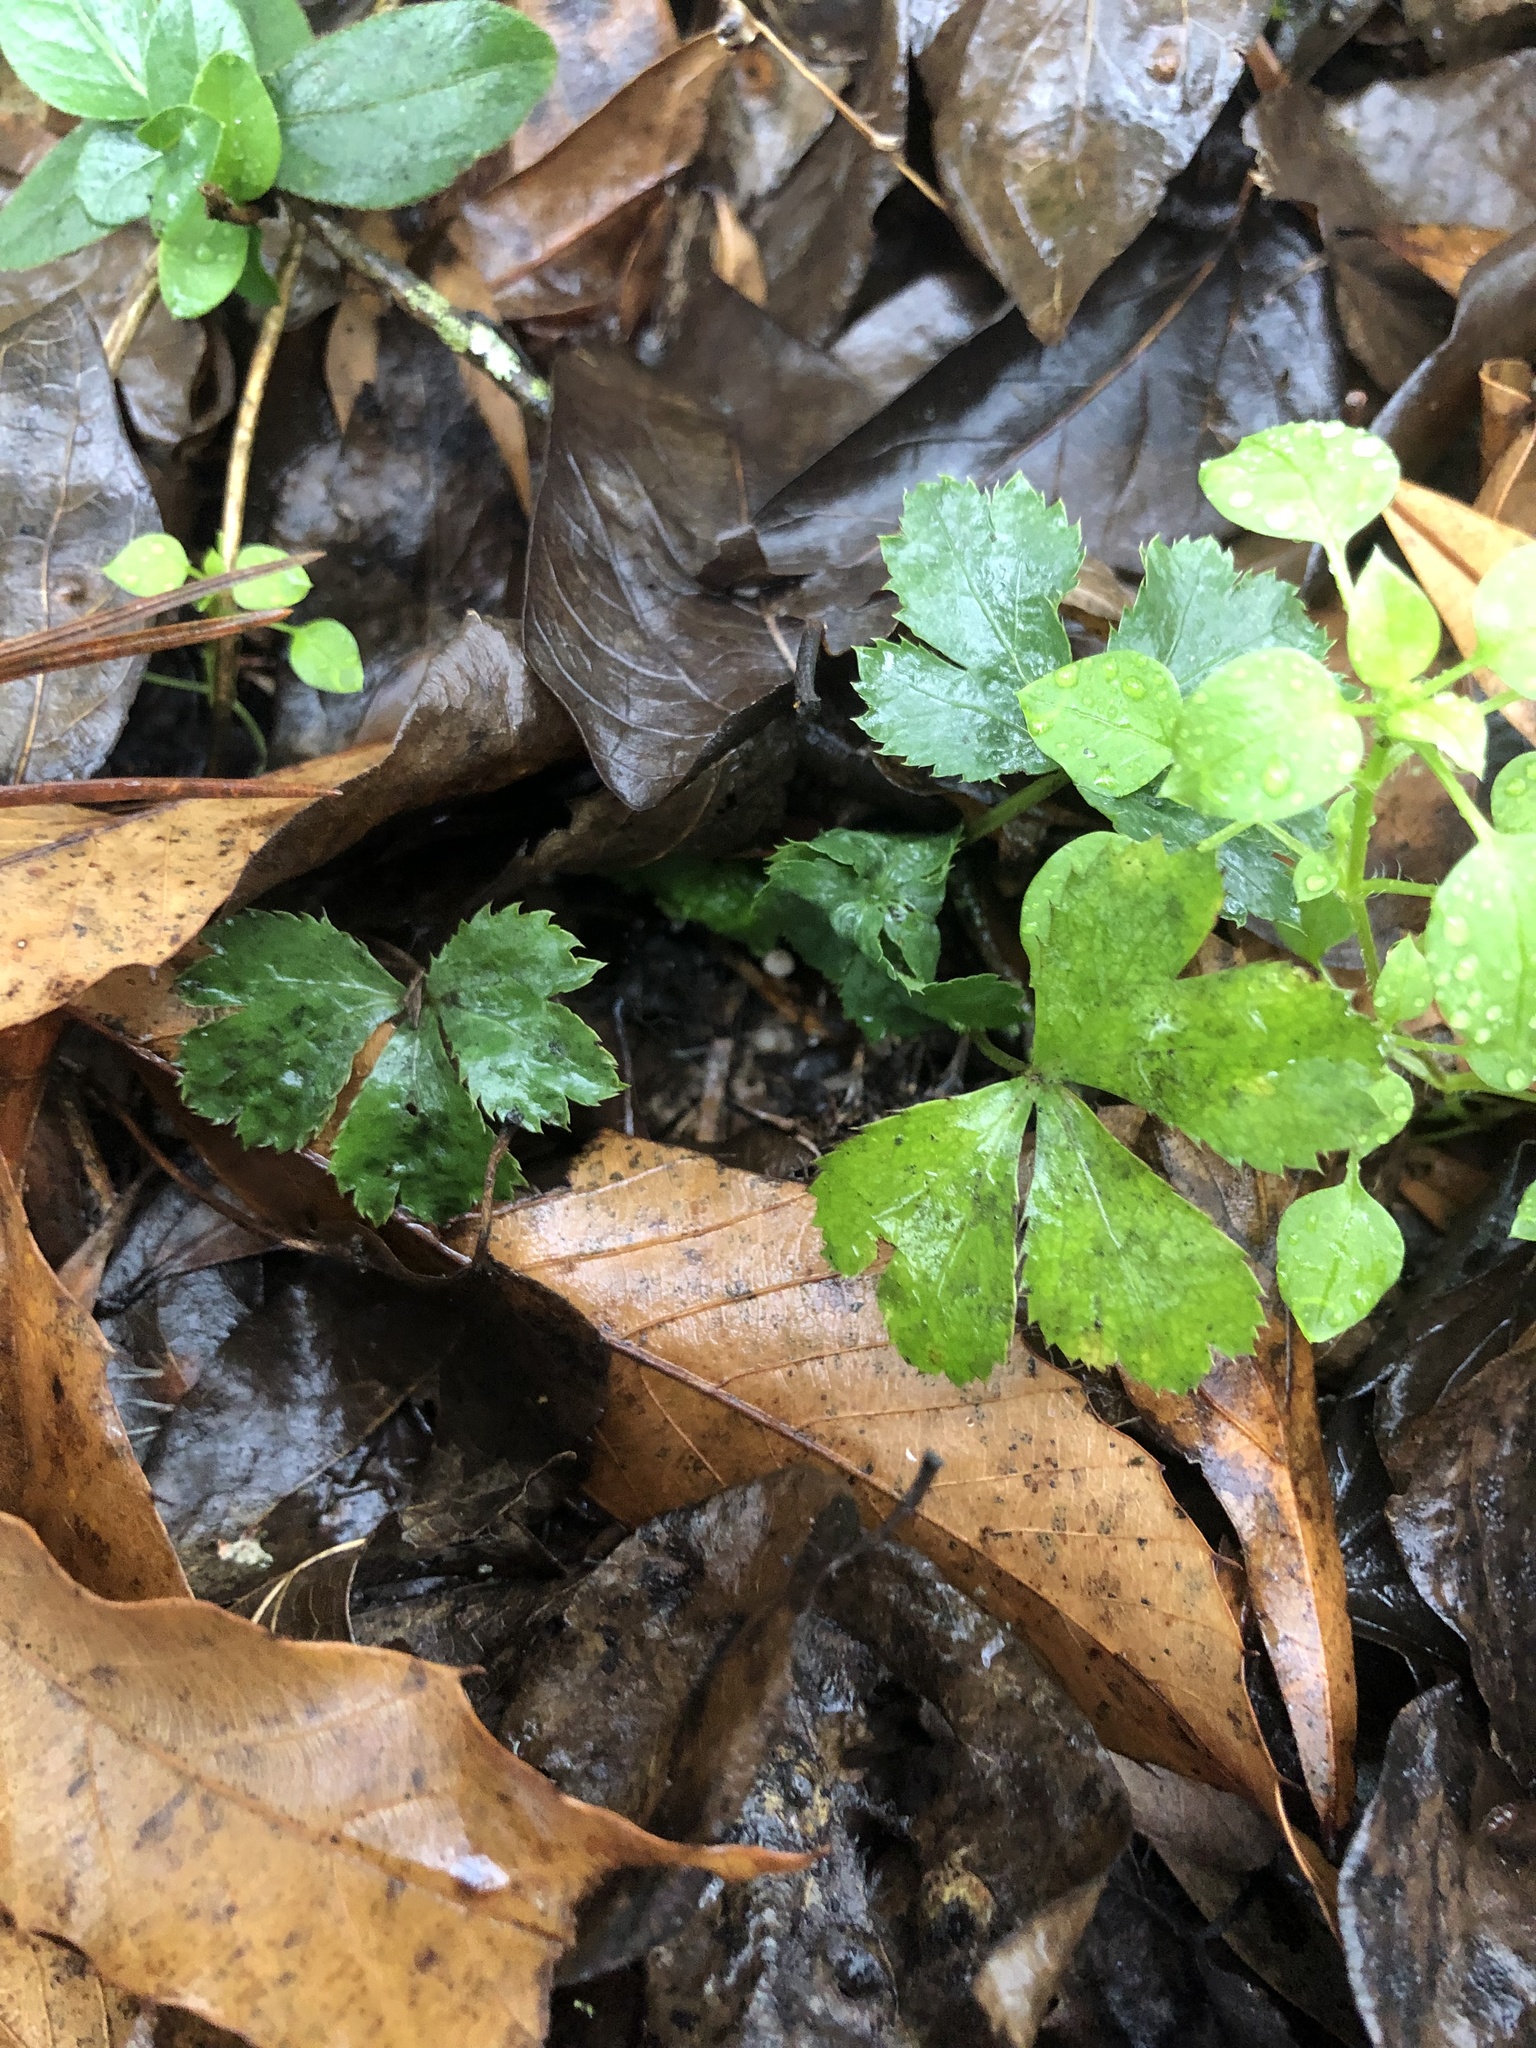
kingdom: Plantae
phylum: Tracheophyta
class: Magnoliopsida
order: Apiales
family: Apiaceae
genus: Sanicula
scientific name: Sanicula canadensis
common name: Canada sanicle
